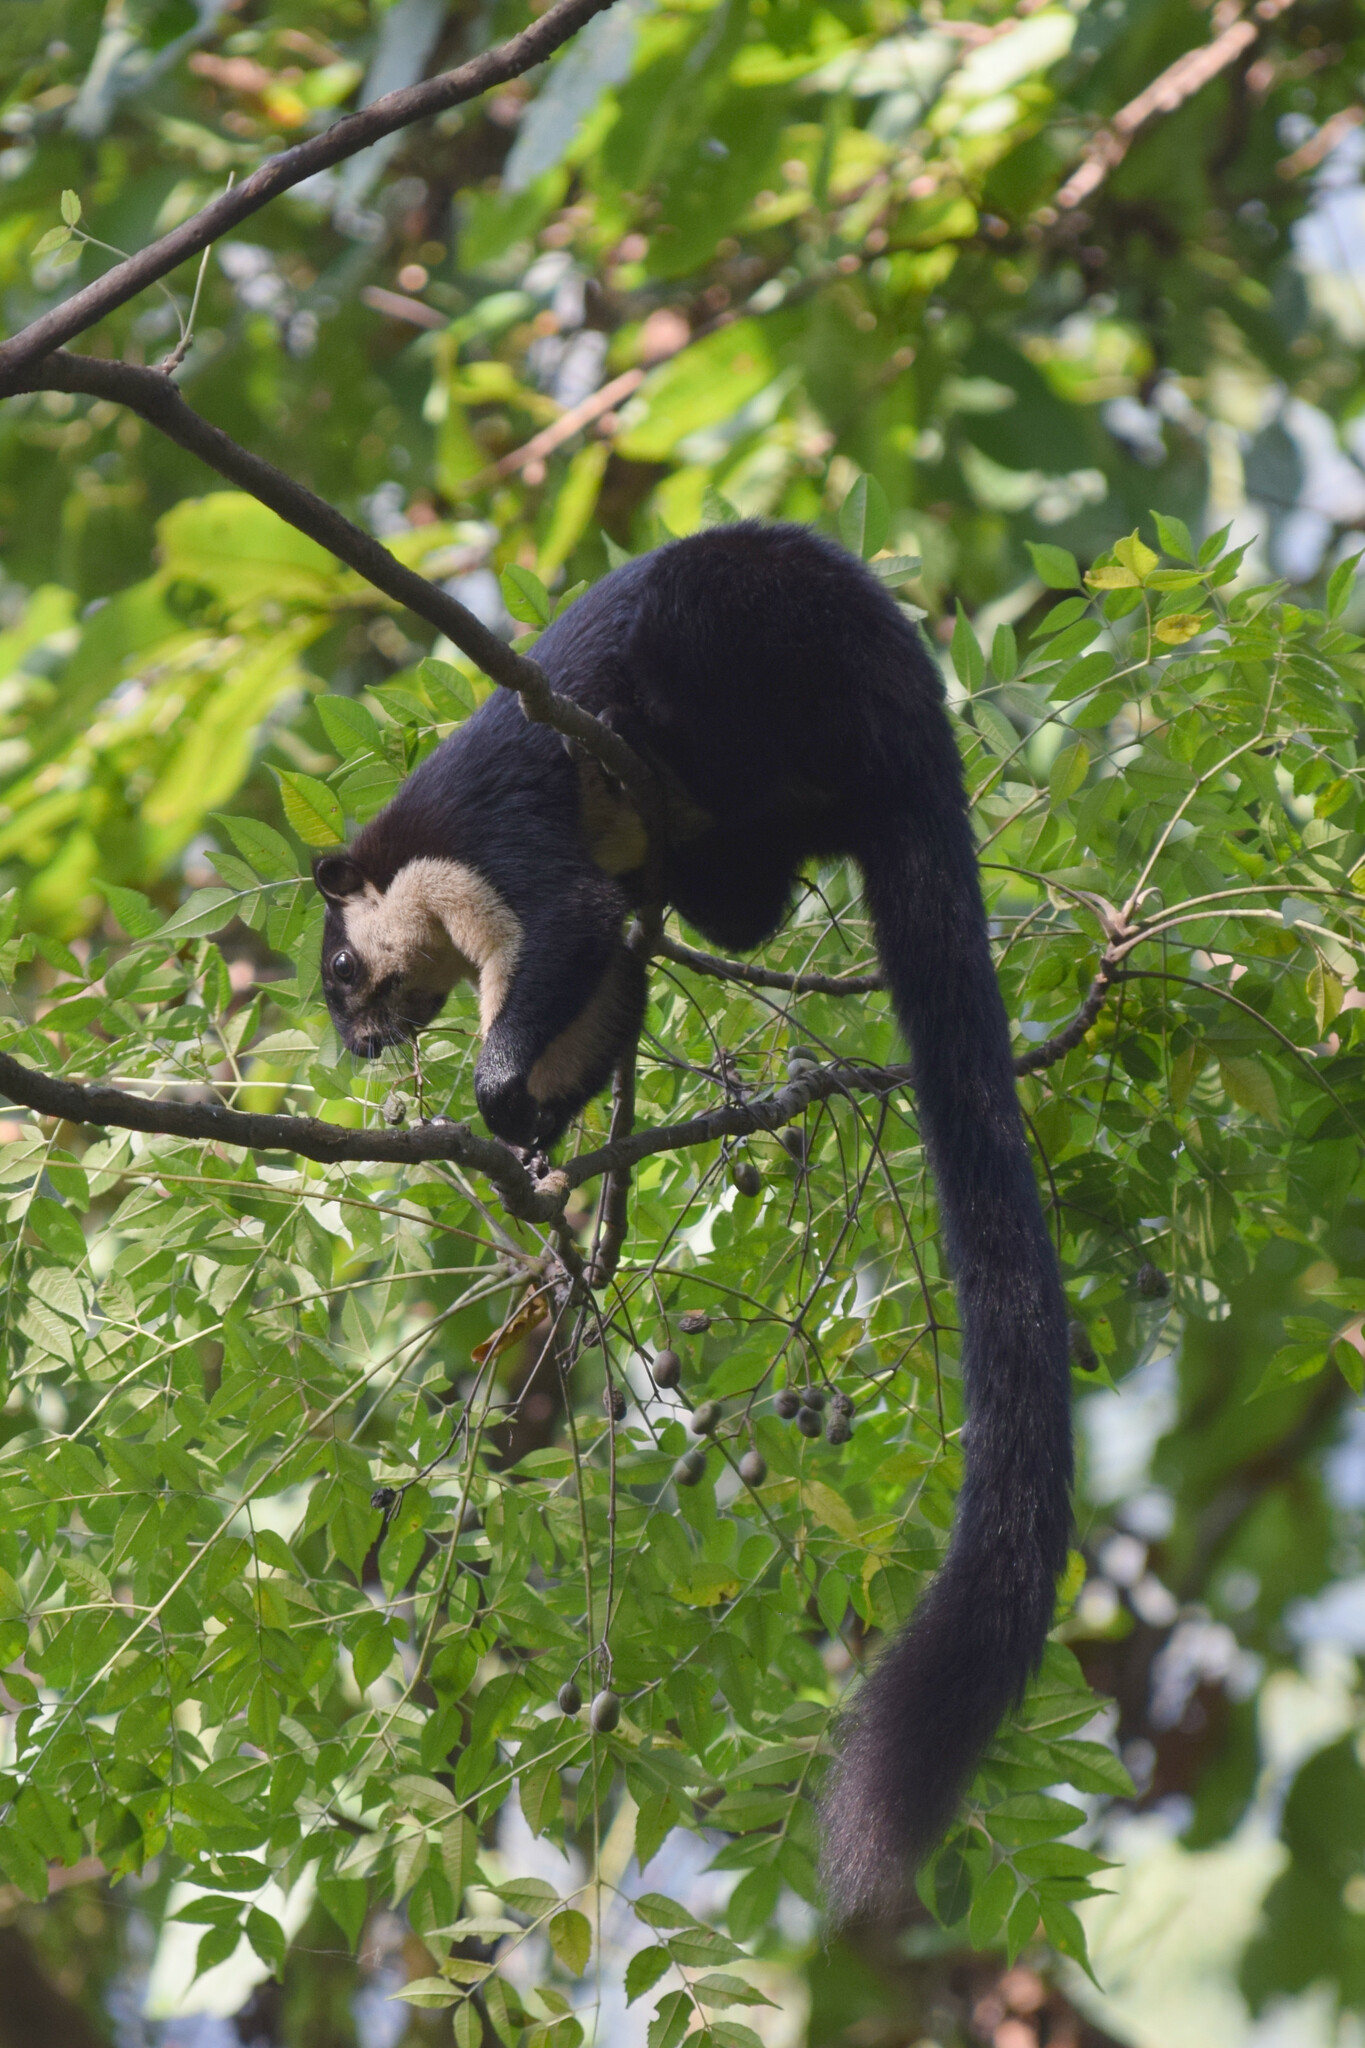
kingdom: Animalia
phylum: Chordata
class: Mammalia
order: Rodentia
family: Sciuridae
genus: Ratufa
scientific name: Ratufa bicolor
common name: Black giant squirrel
